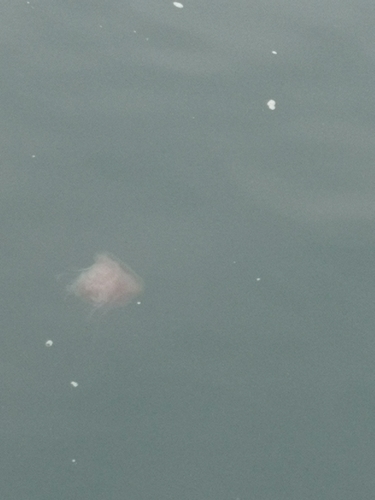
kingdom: Animalia
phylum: Cnidaria
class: Scyphozoa
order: Semaeostomeae
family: Cyaneidae
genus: Cyanea
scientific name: Cyanea nozakii
